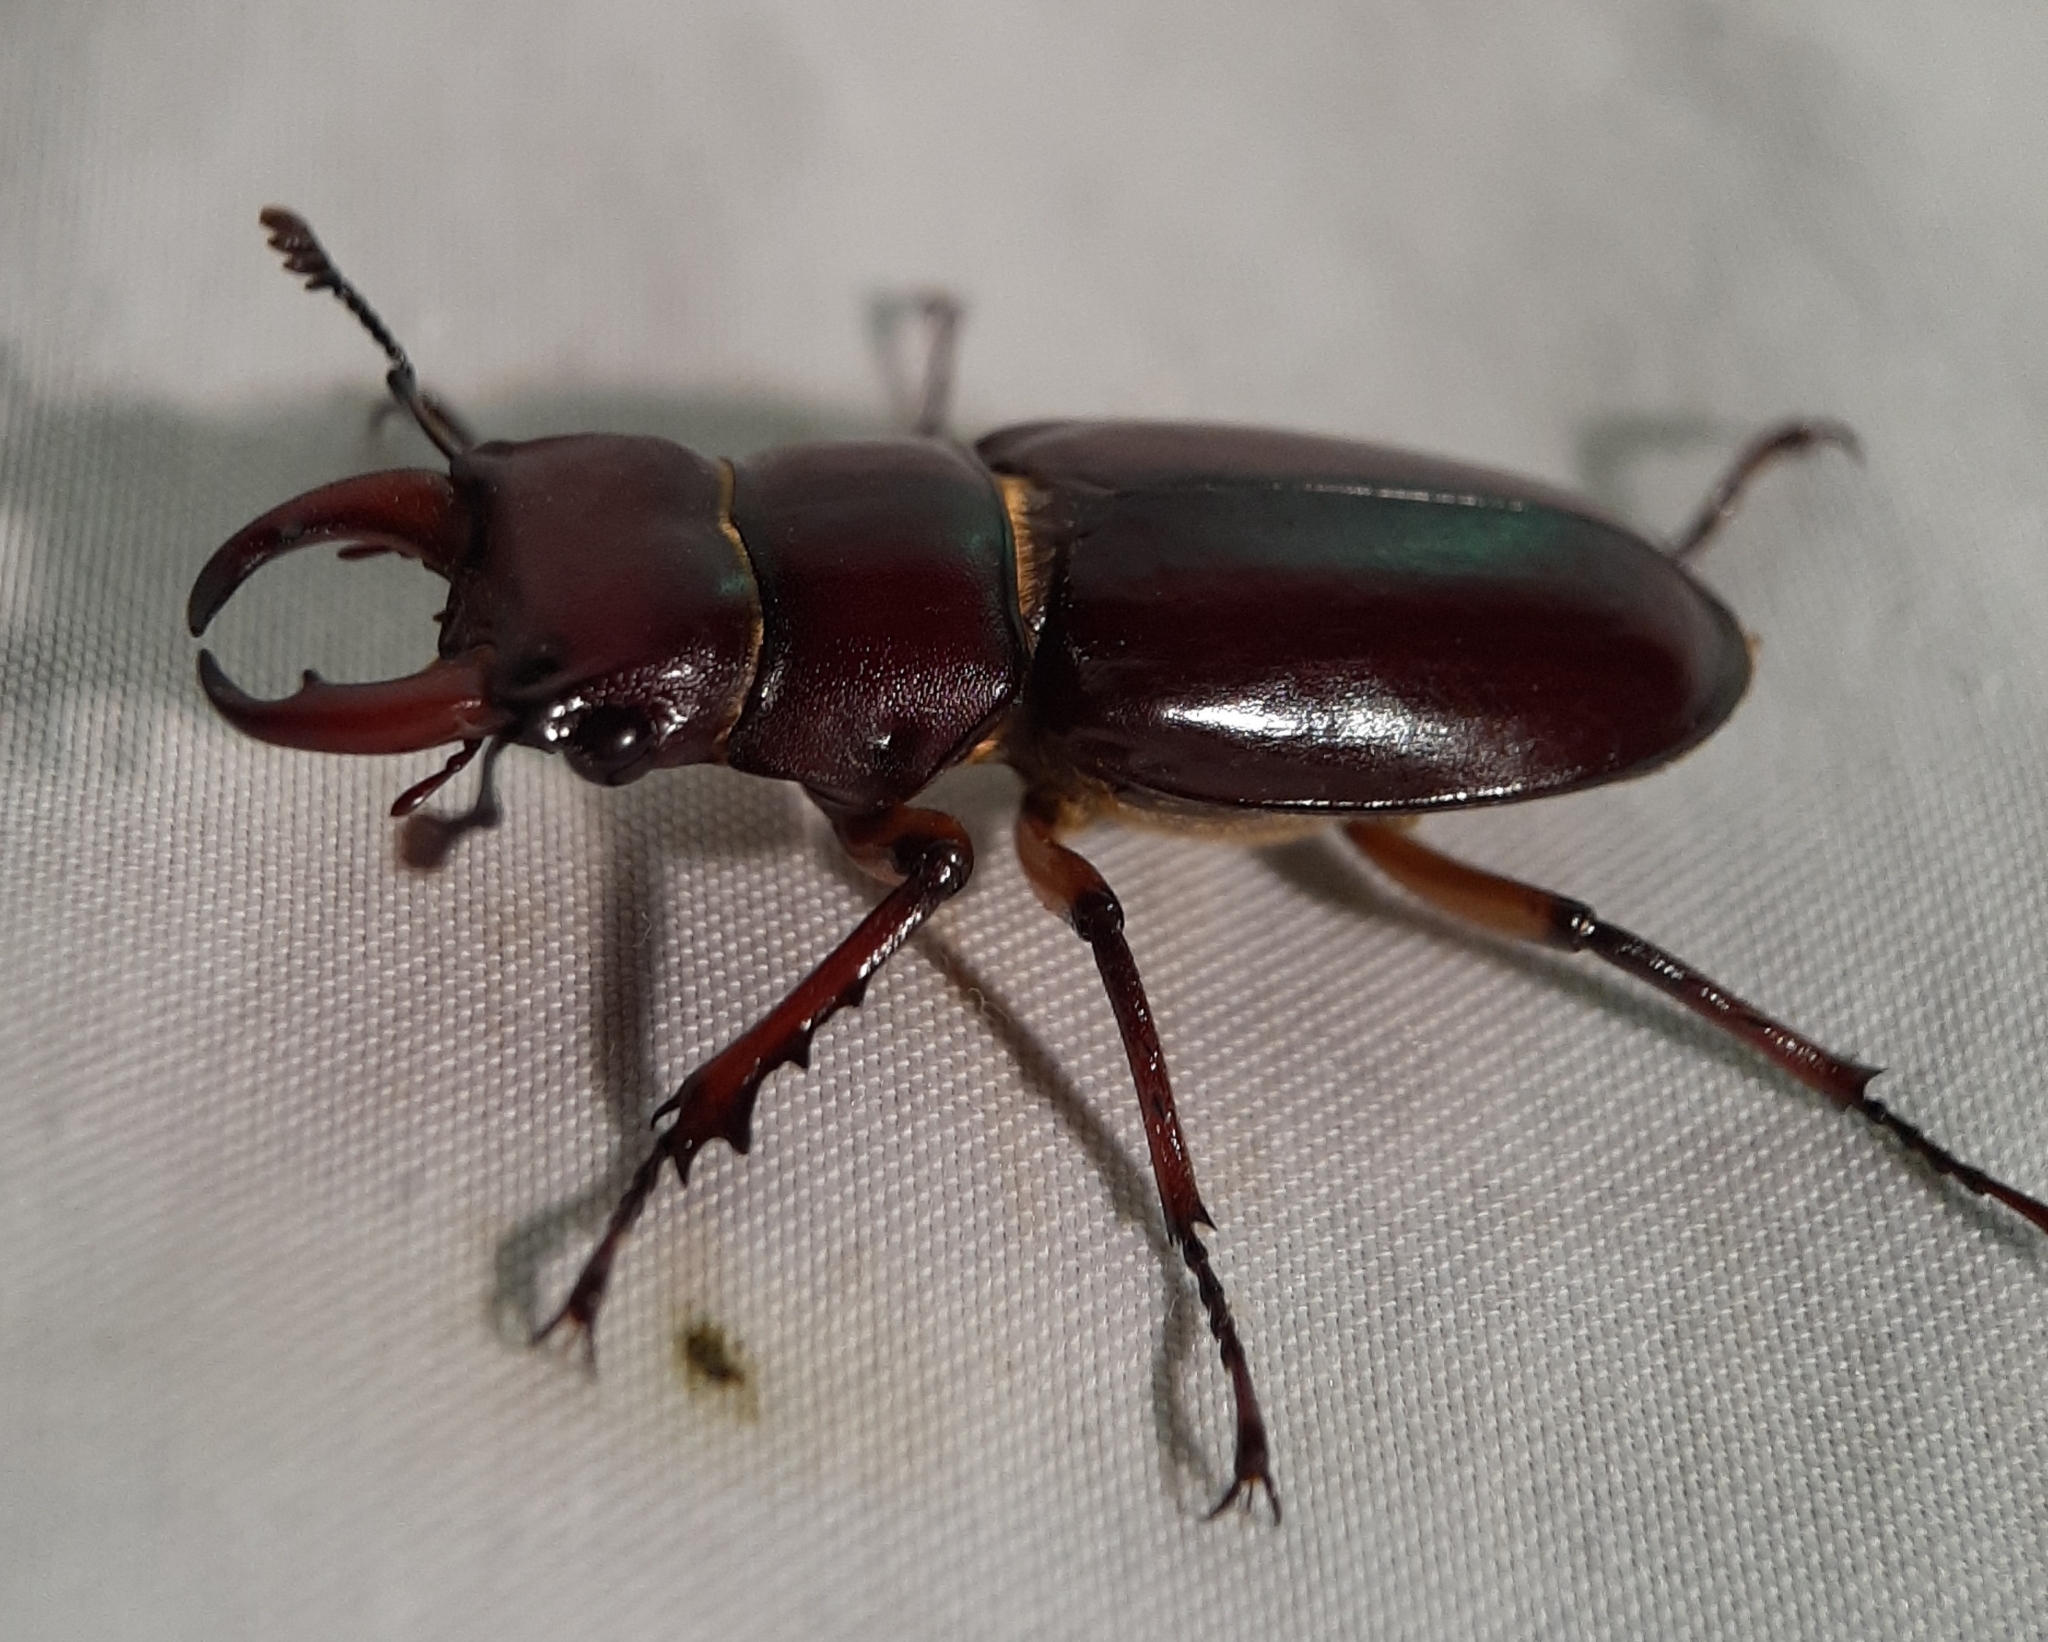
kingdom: Animalia
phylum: Arthropoda
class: Insecta
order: Coleoptera
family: Lucanidae
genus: Lucanus
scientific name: Lucanus capreolus
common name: Stag beetle
